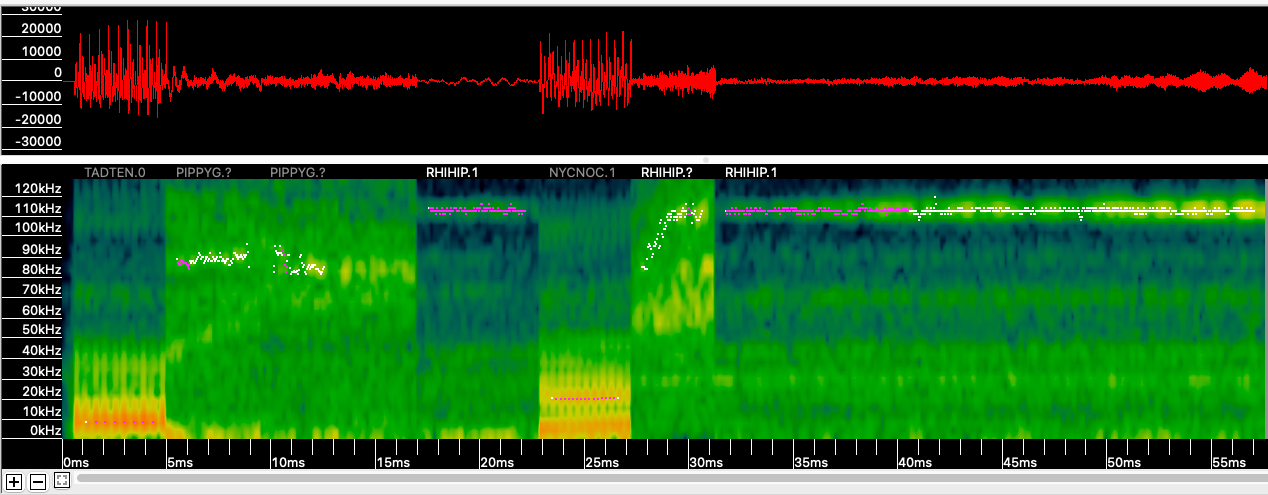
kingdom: Animalia
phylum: Chordata
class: Mammalia
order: Chiroptera
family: Rhinolophidae
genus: Rhinolophus
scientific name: Rhinolophus hipposideros
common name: Lesser horseshoe bat
